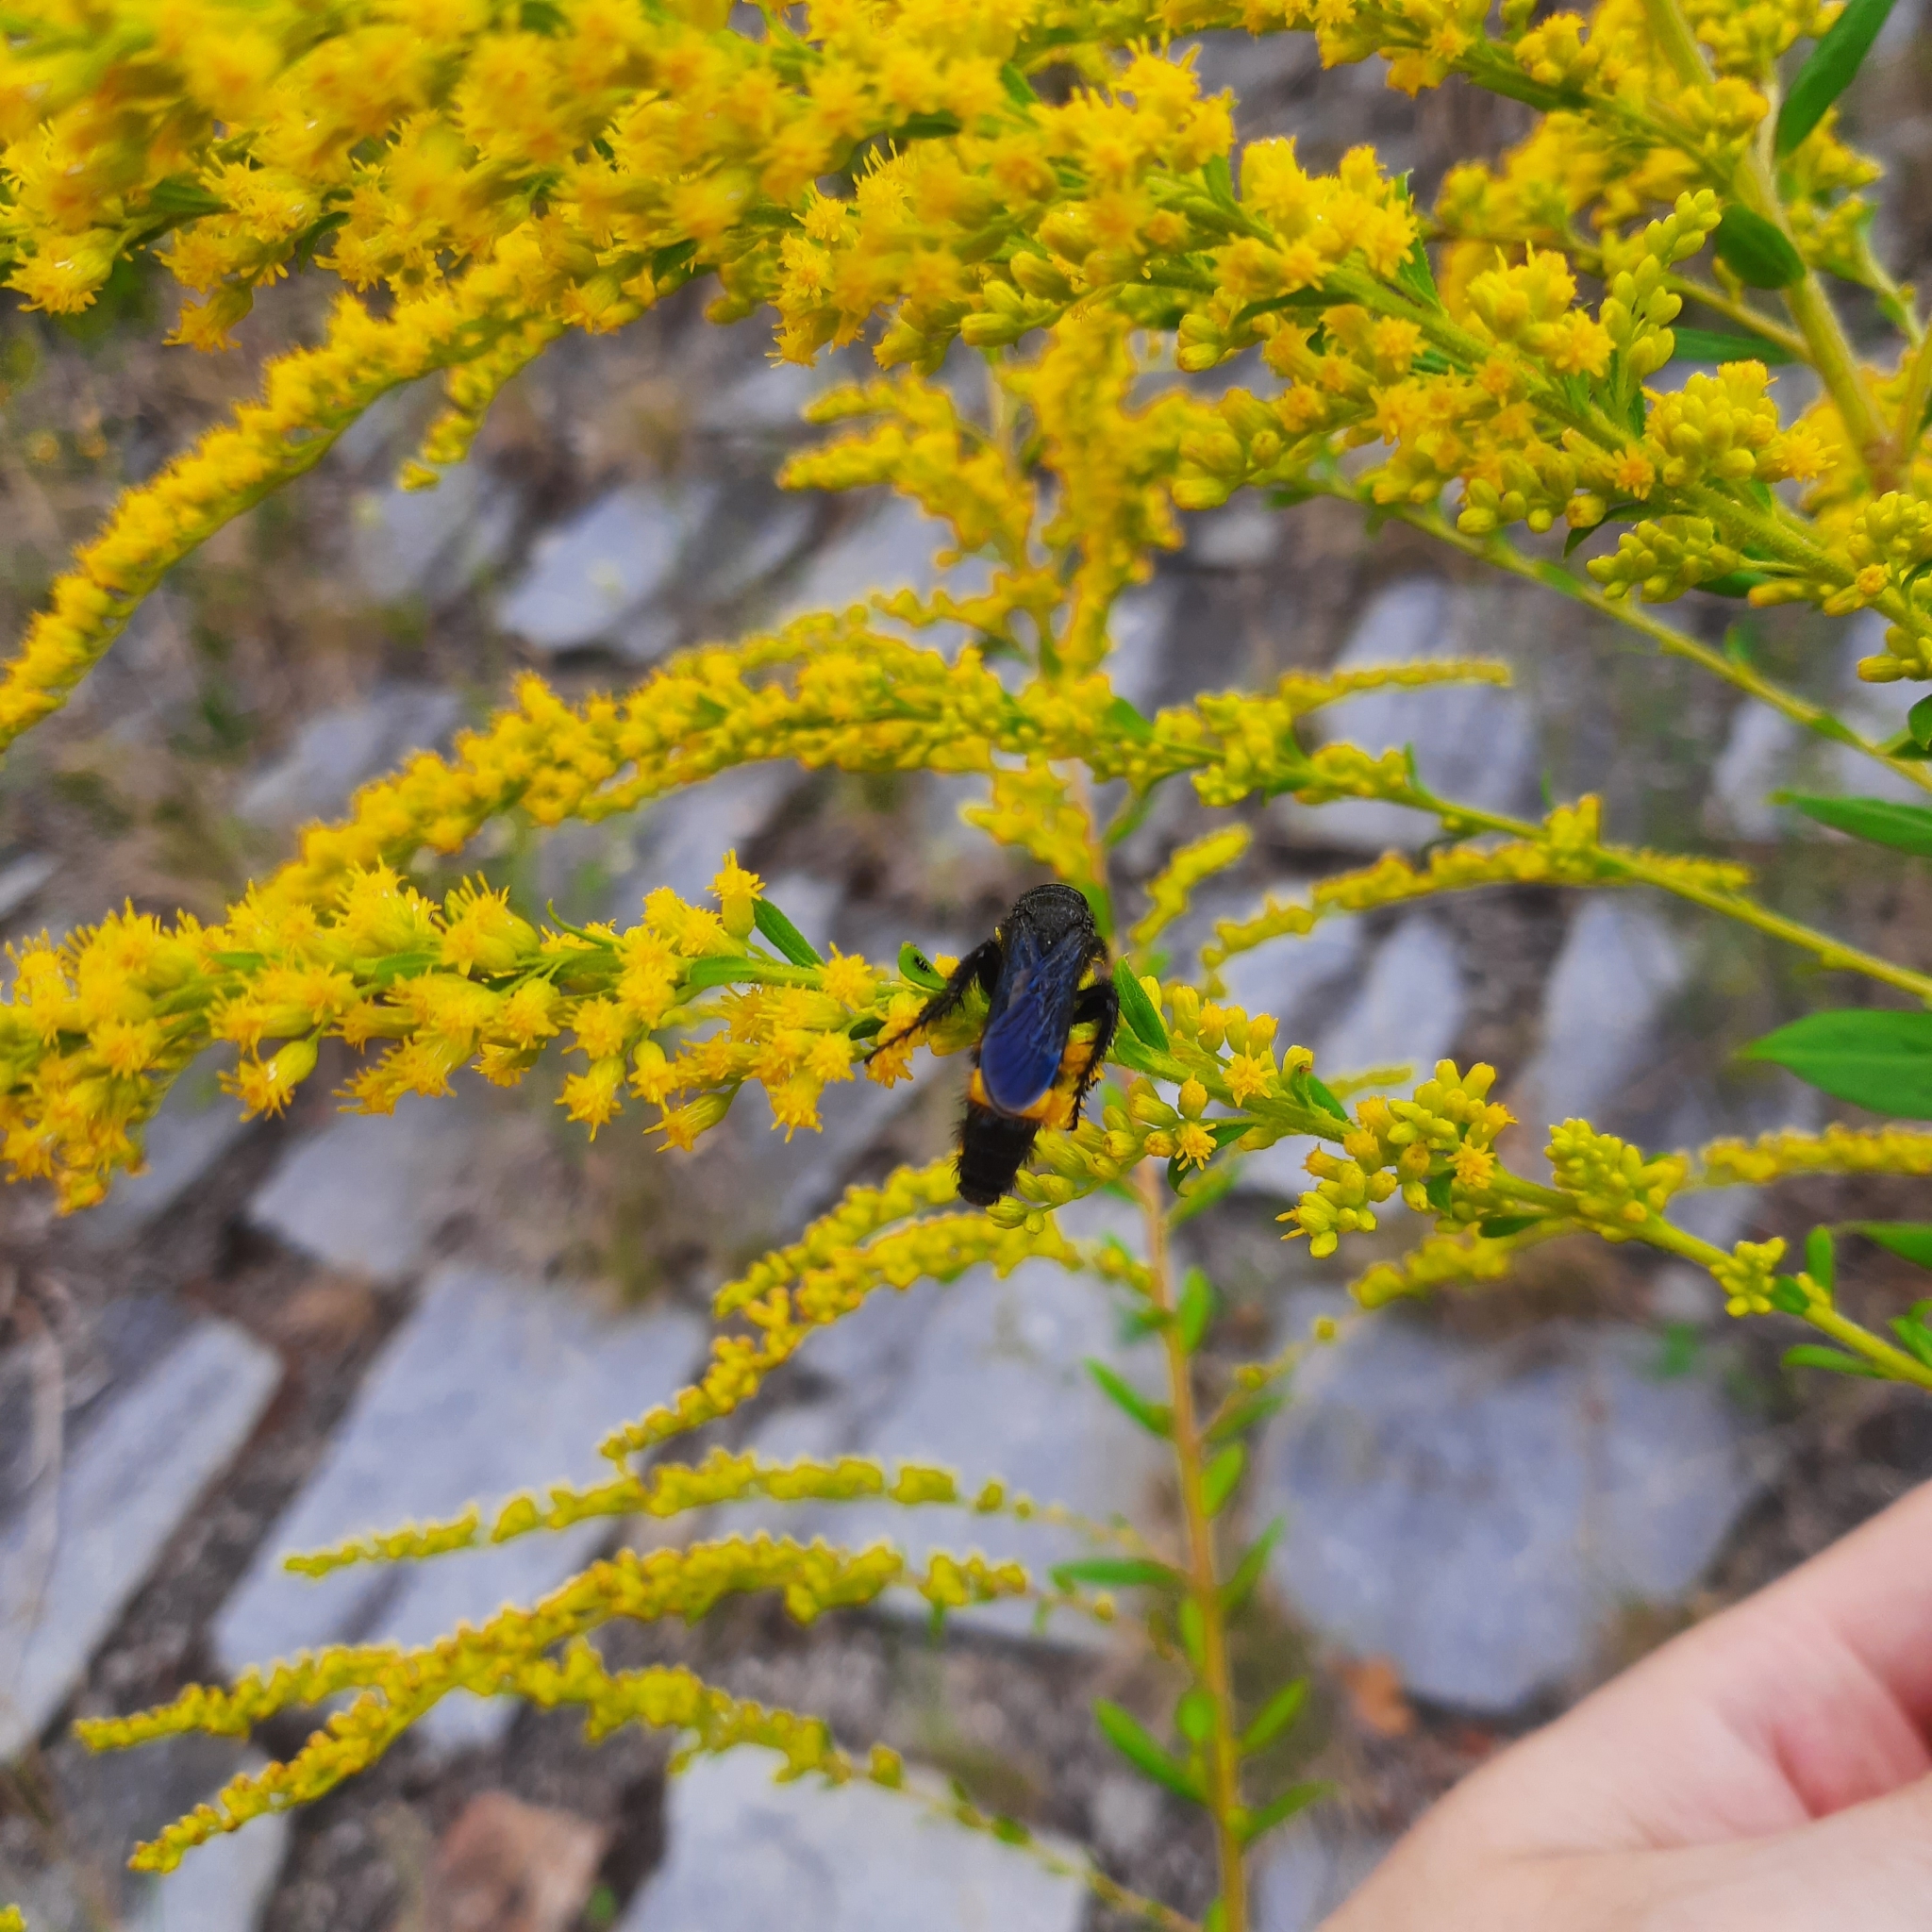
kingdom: Animalia
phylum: Arthropoda
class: Insecta
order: Hymenoptera
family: Scoliidae
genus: Scolia
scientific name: Scolia hirta
